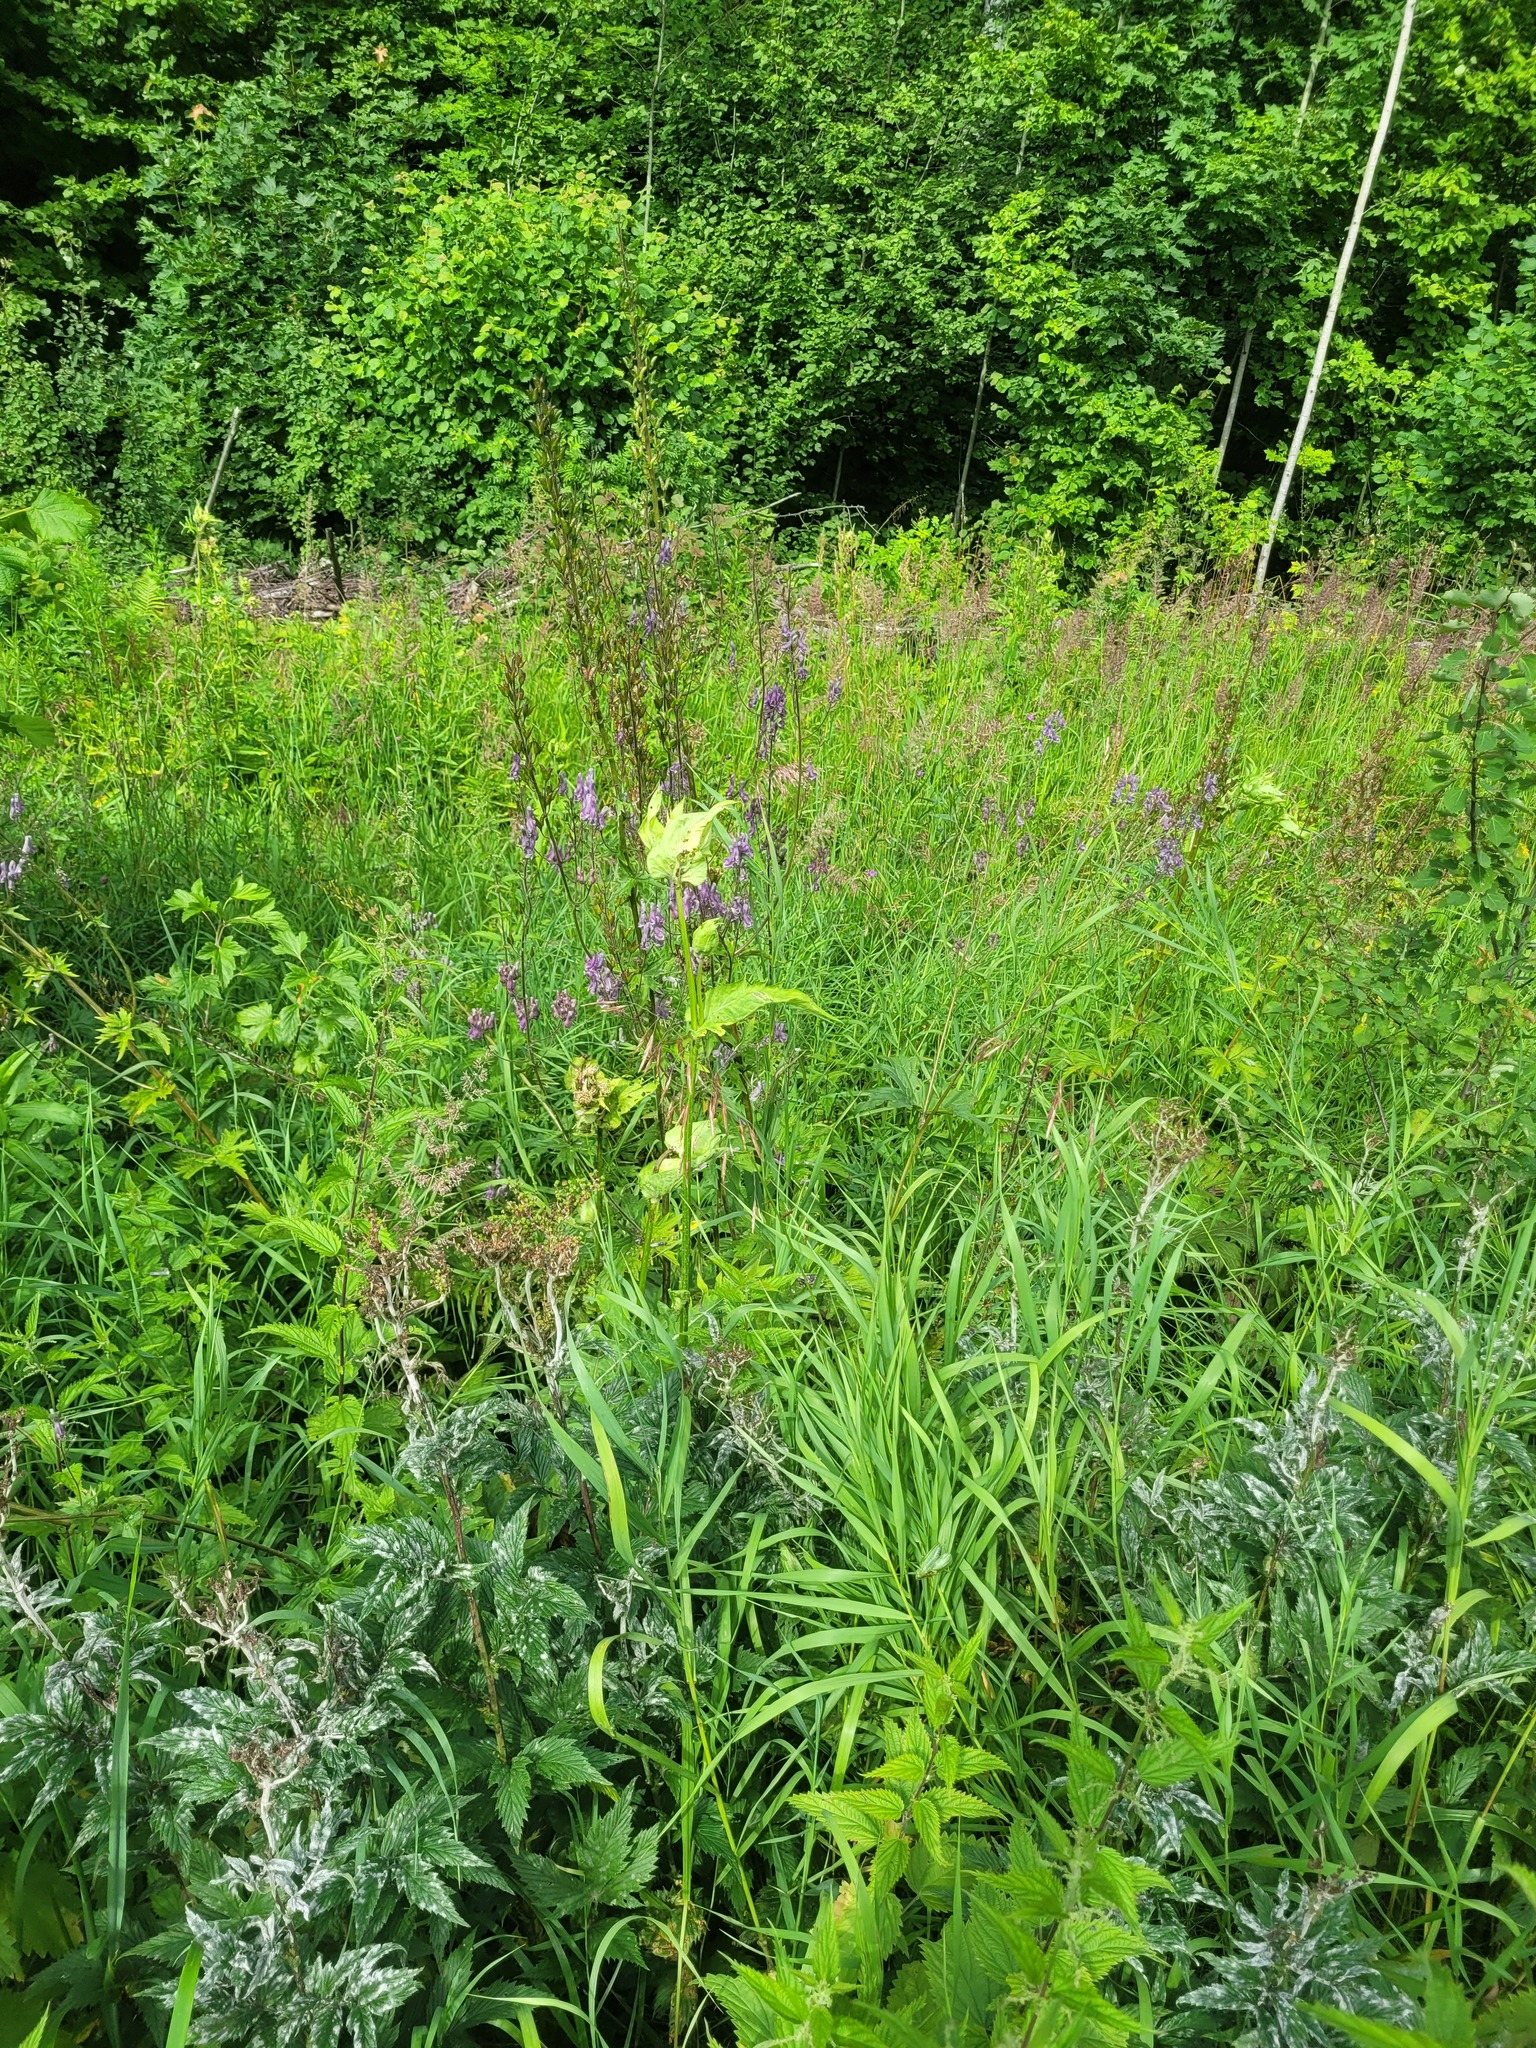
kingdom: Plantae
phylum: Tracheophyta
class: Magnoliopsida
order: Asterales
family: Asteraceae
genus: Cirsium
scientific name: Cirsium oleraceum
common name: Cabbage thistle
